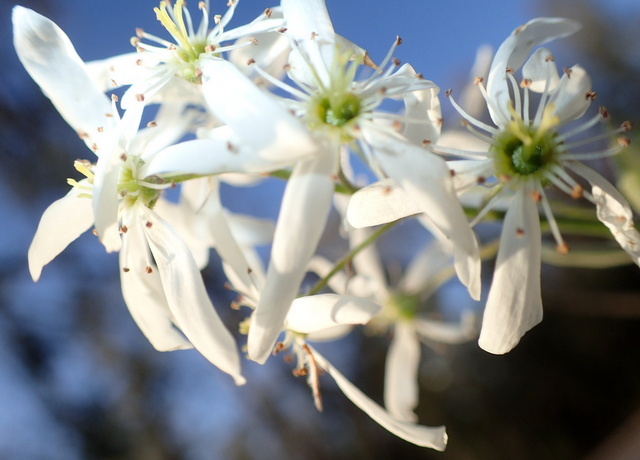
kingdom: Plantae
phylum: Tracheophyta
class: Magnoliopsida
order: Rosales
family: Rosaceae
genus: Amelanchier
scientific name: Amelanchier arborea
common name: Downy serviceberry
